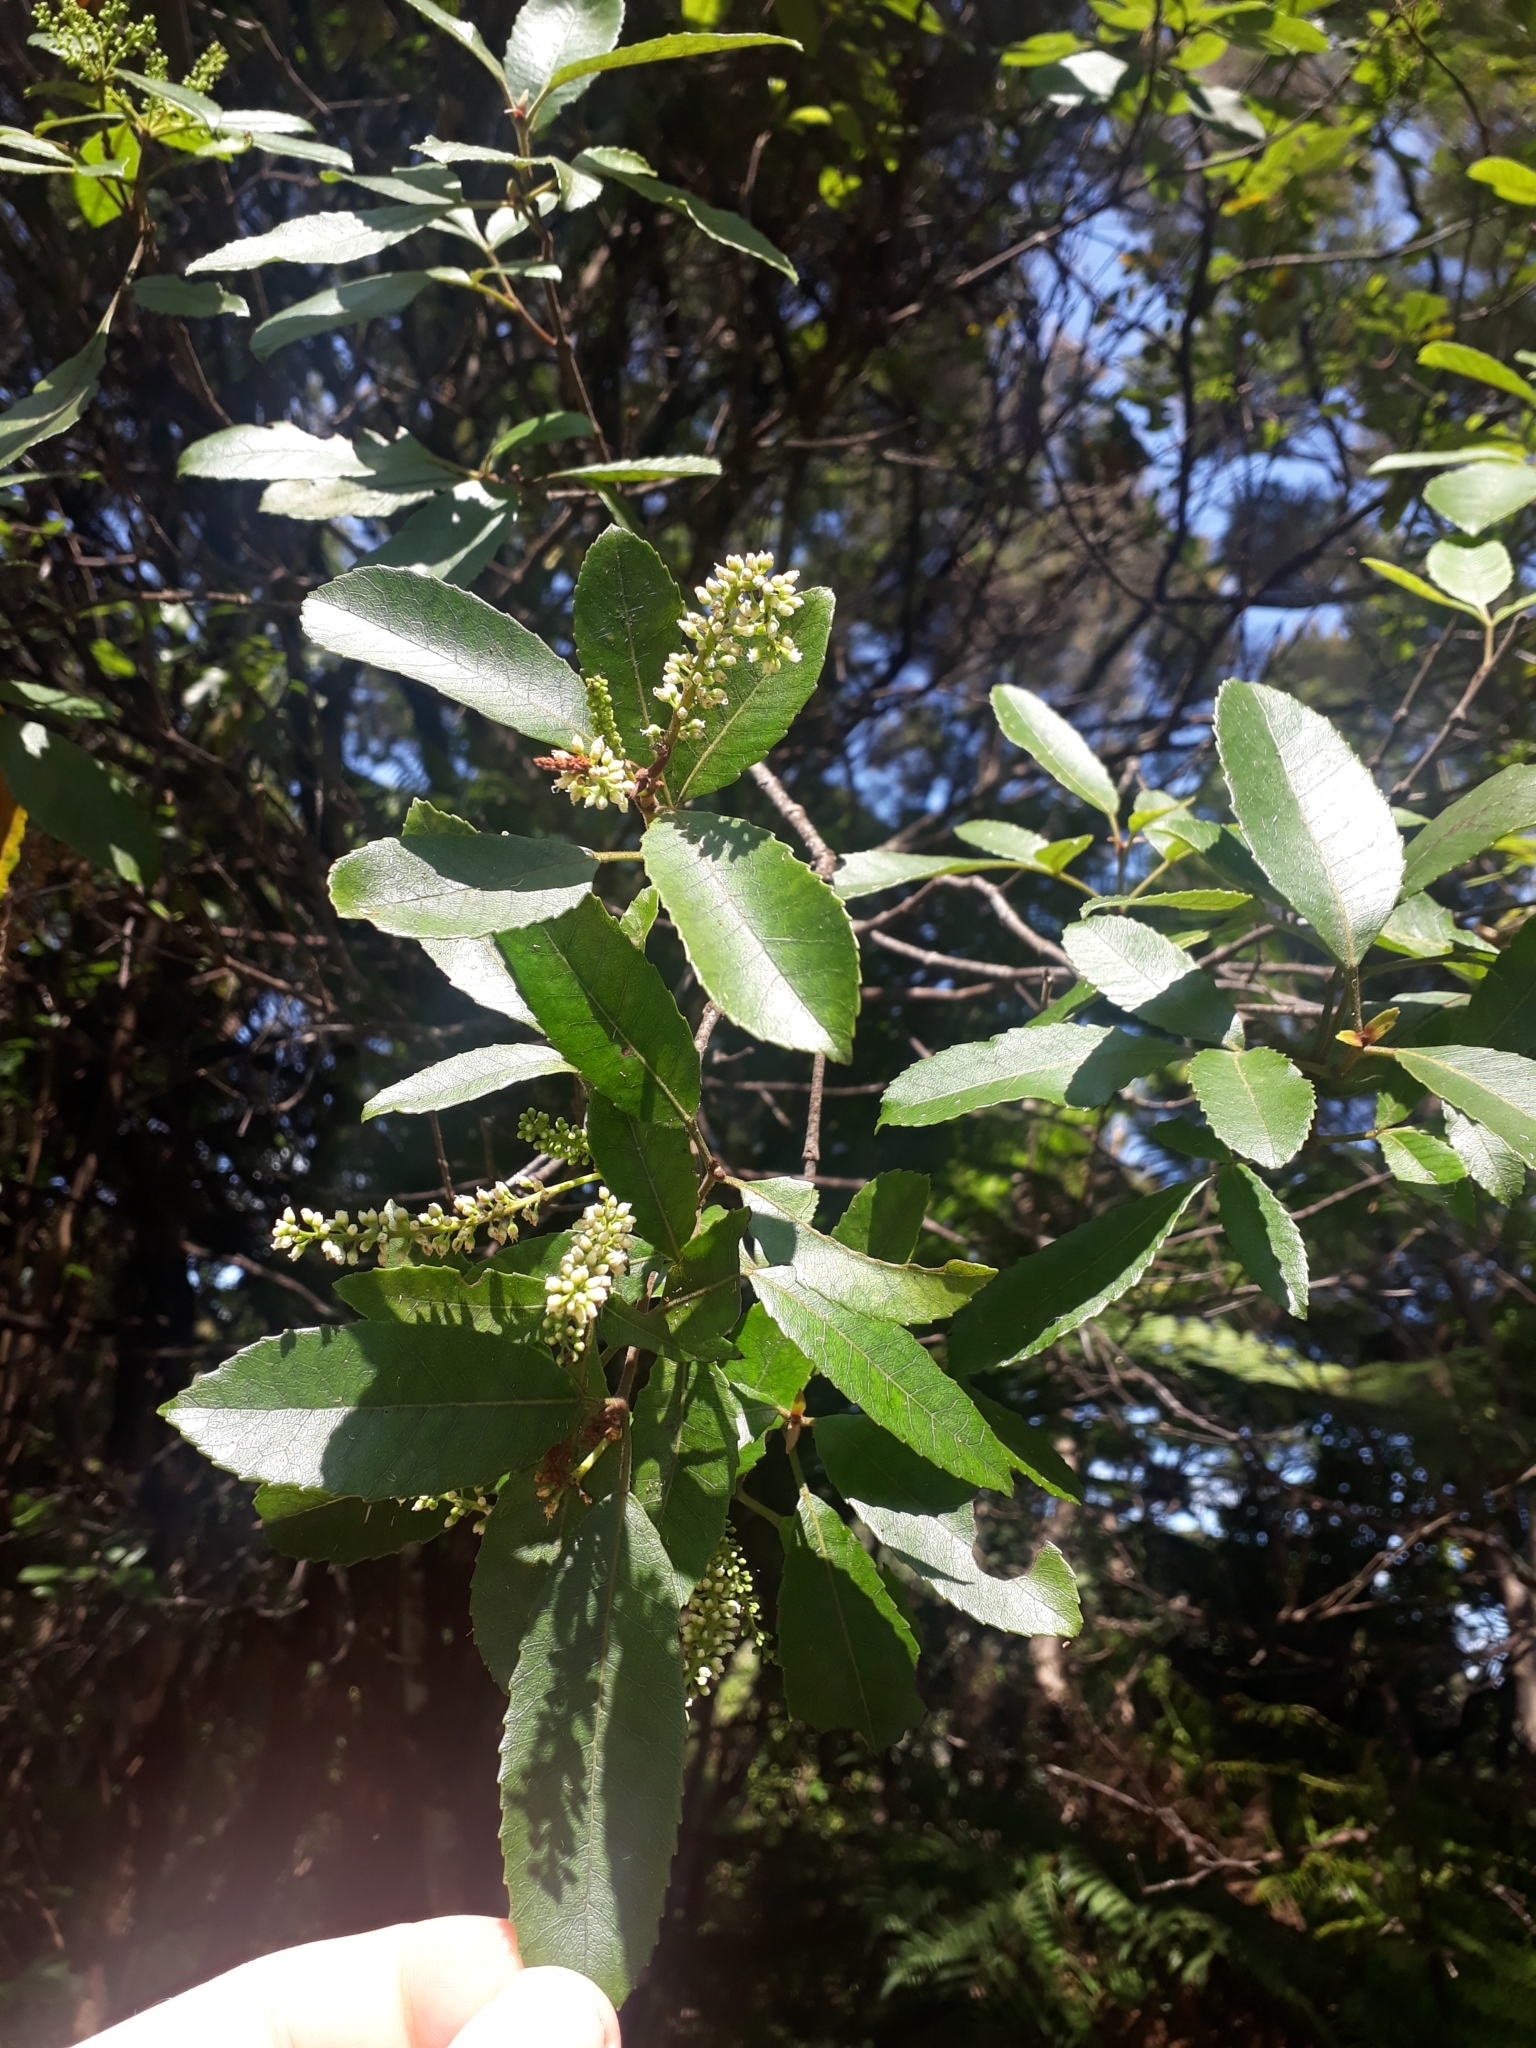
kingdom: Plantae
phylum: Tracheophyta
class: Magnoliopsida
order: Oxalidales
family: Cunoniaceae
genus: Pterophylla
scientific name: Pterophylla sylvicola
